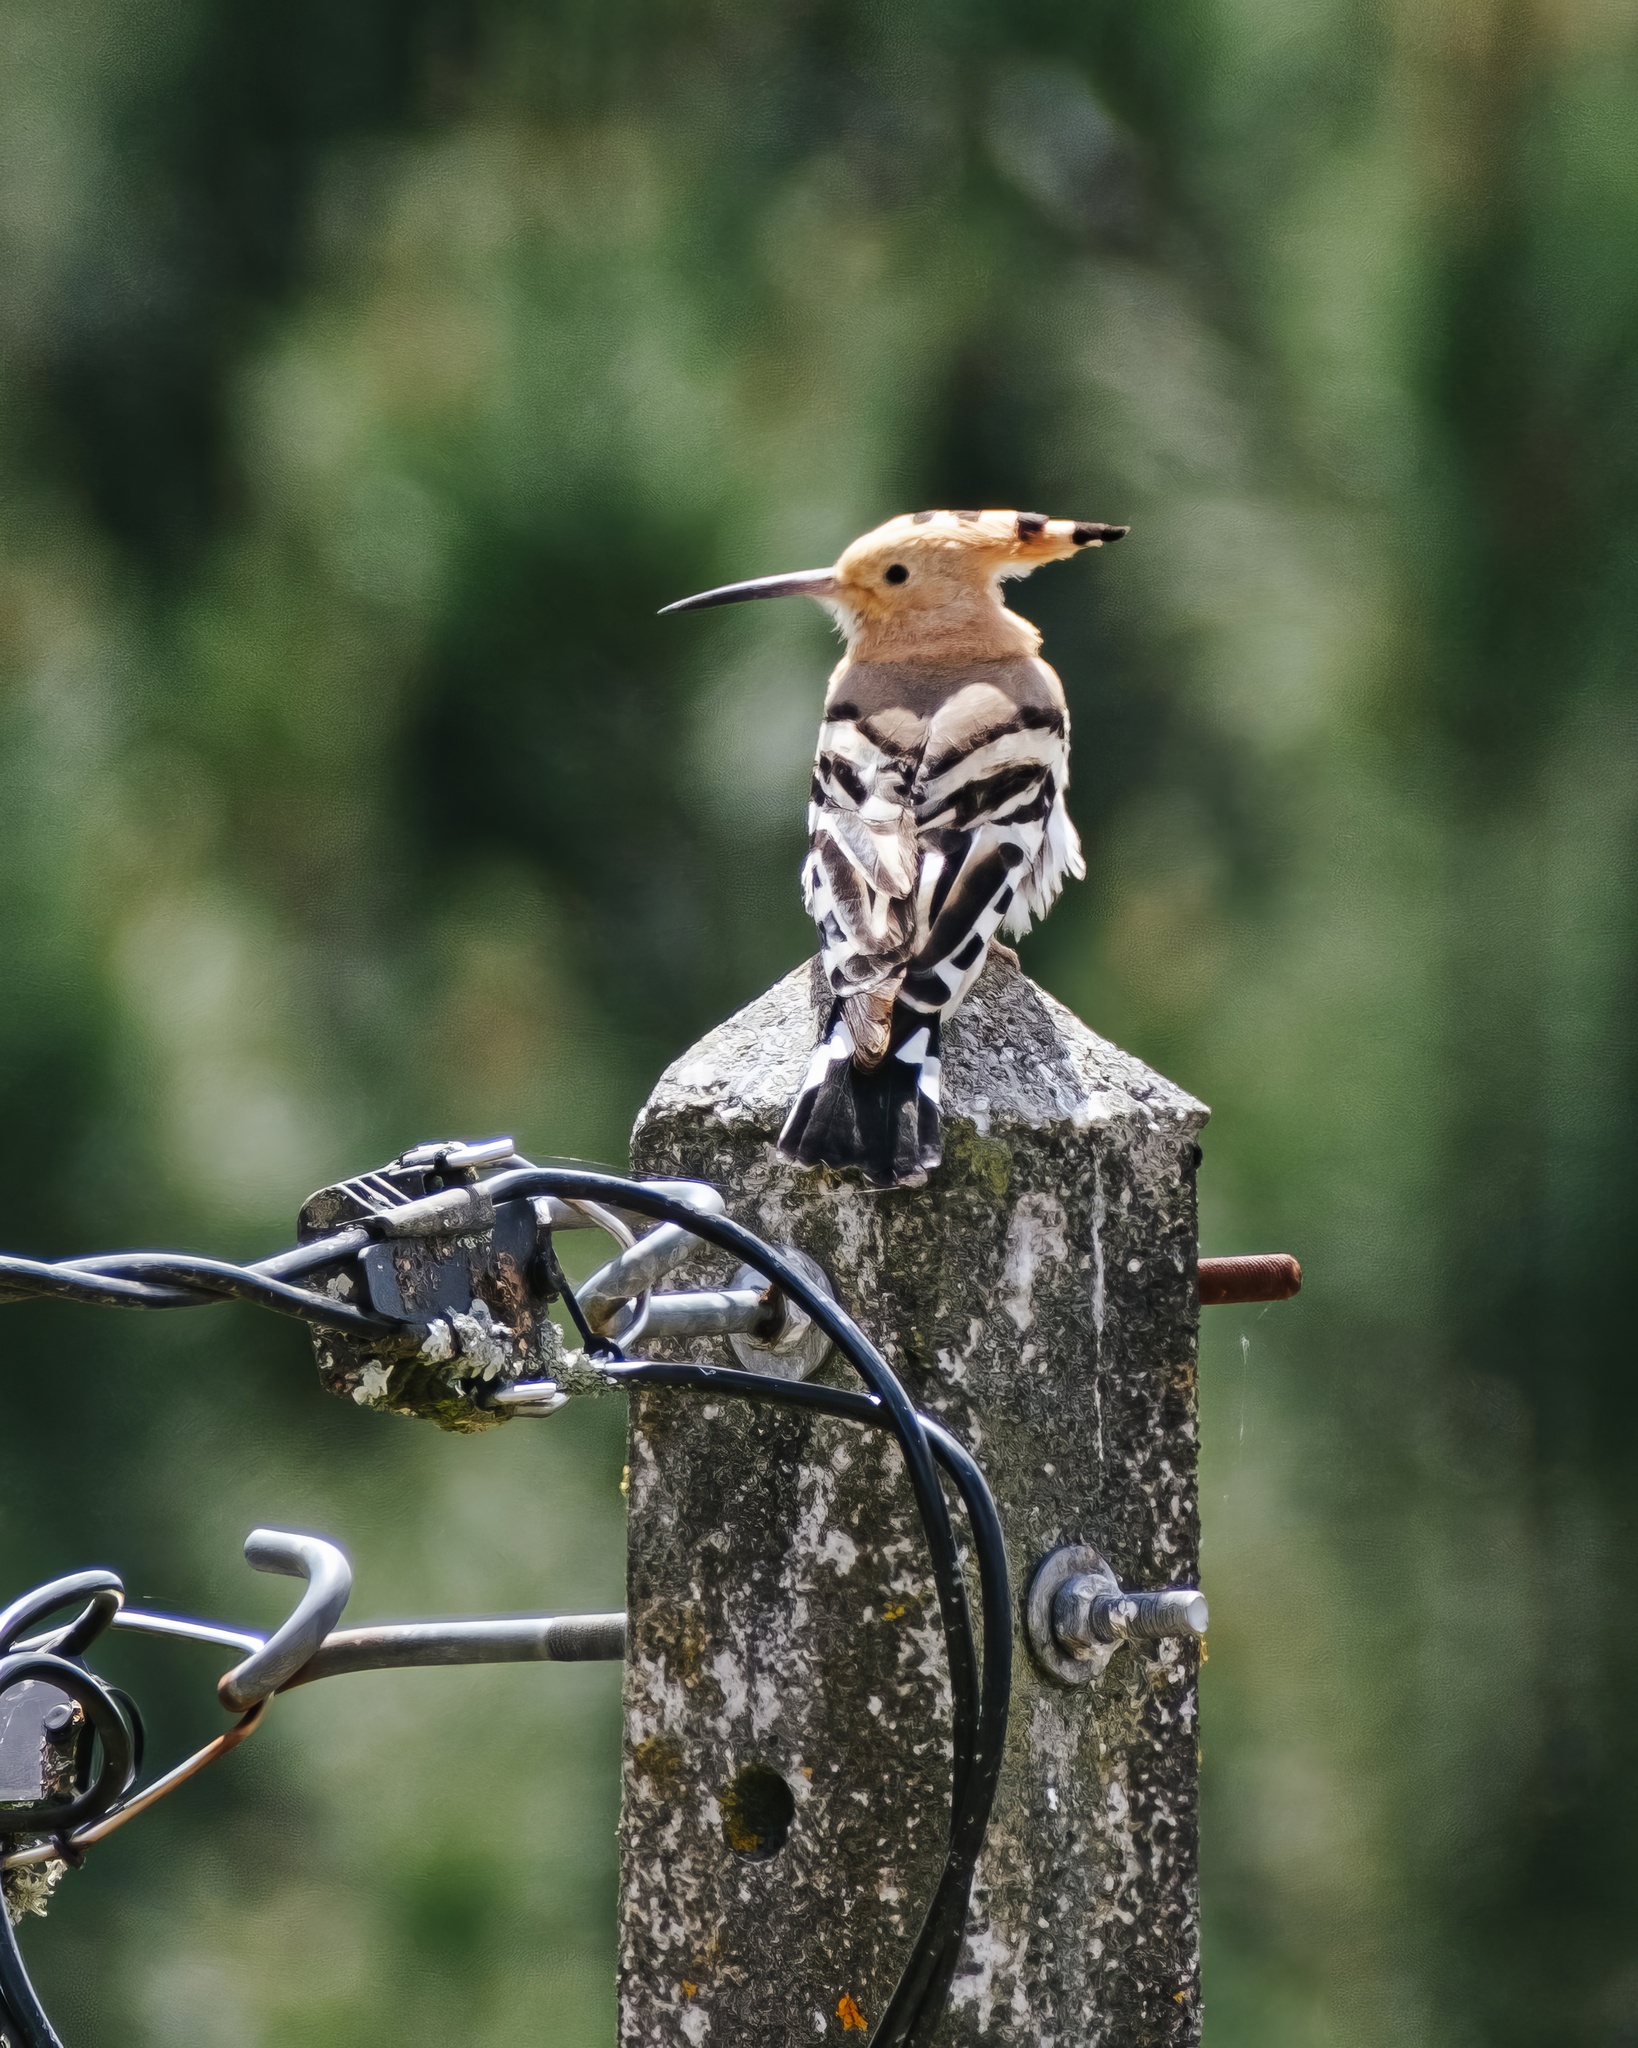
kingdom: Animalia
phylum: Chordata
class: Aves
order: Bucerotiformes
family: Upupidae
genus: Upupa
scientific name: Upupa epops
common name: Eurasian hoopoe
